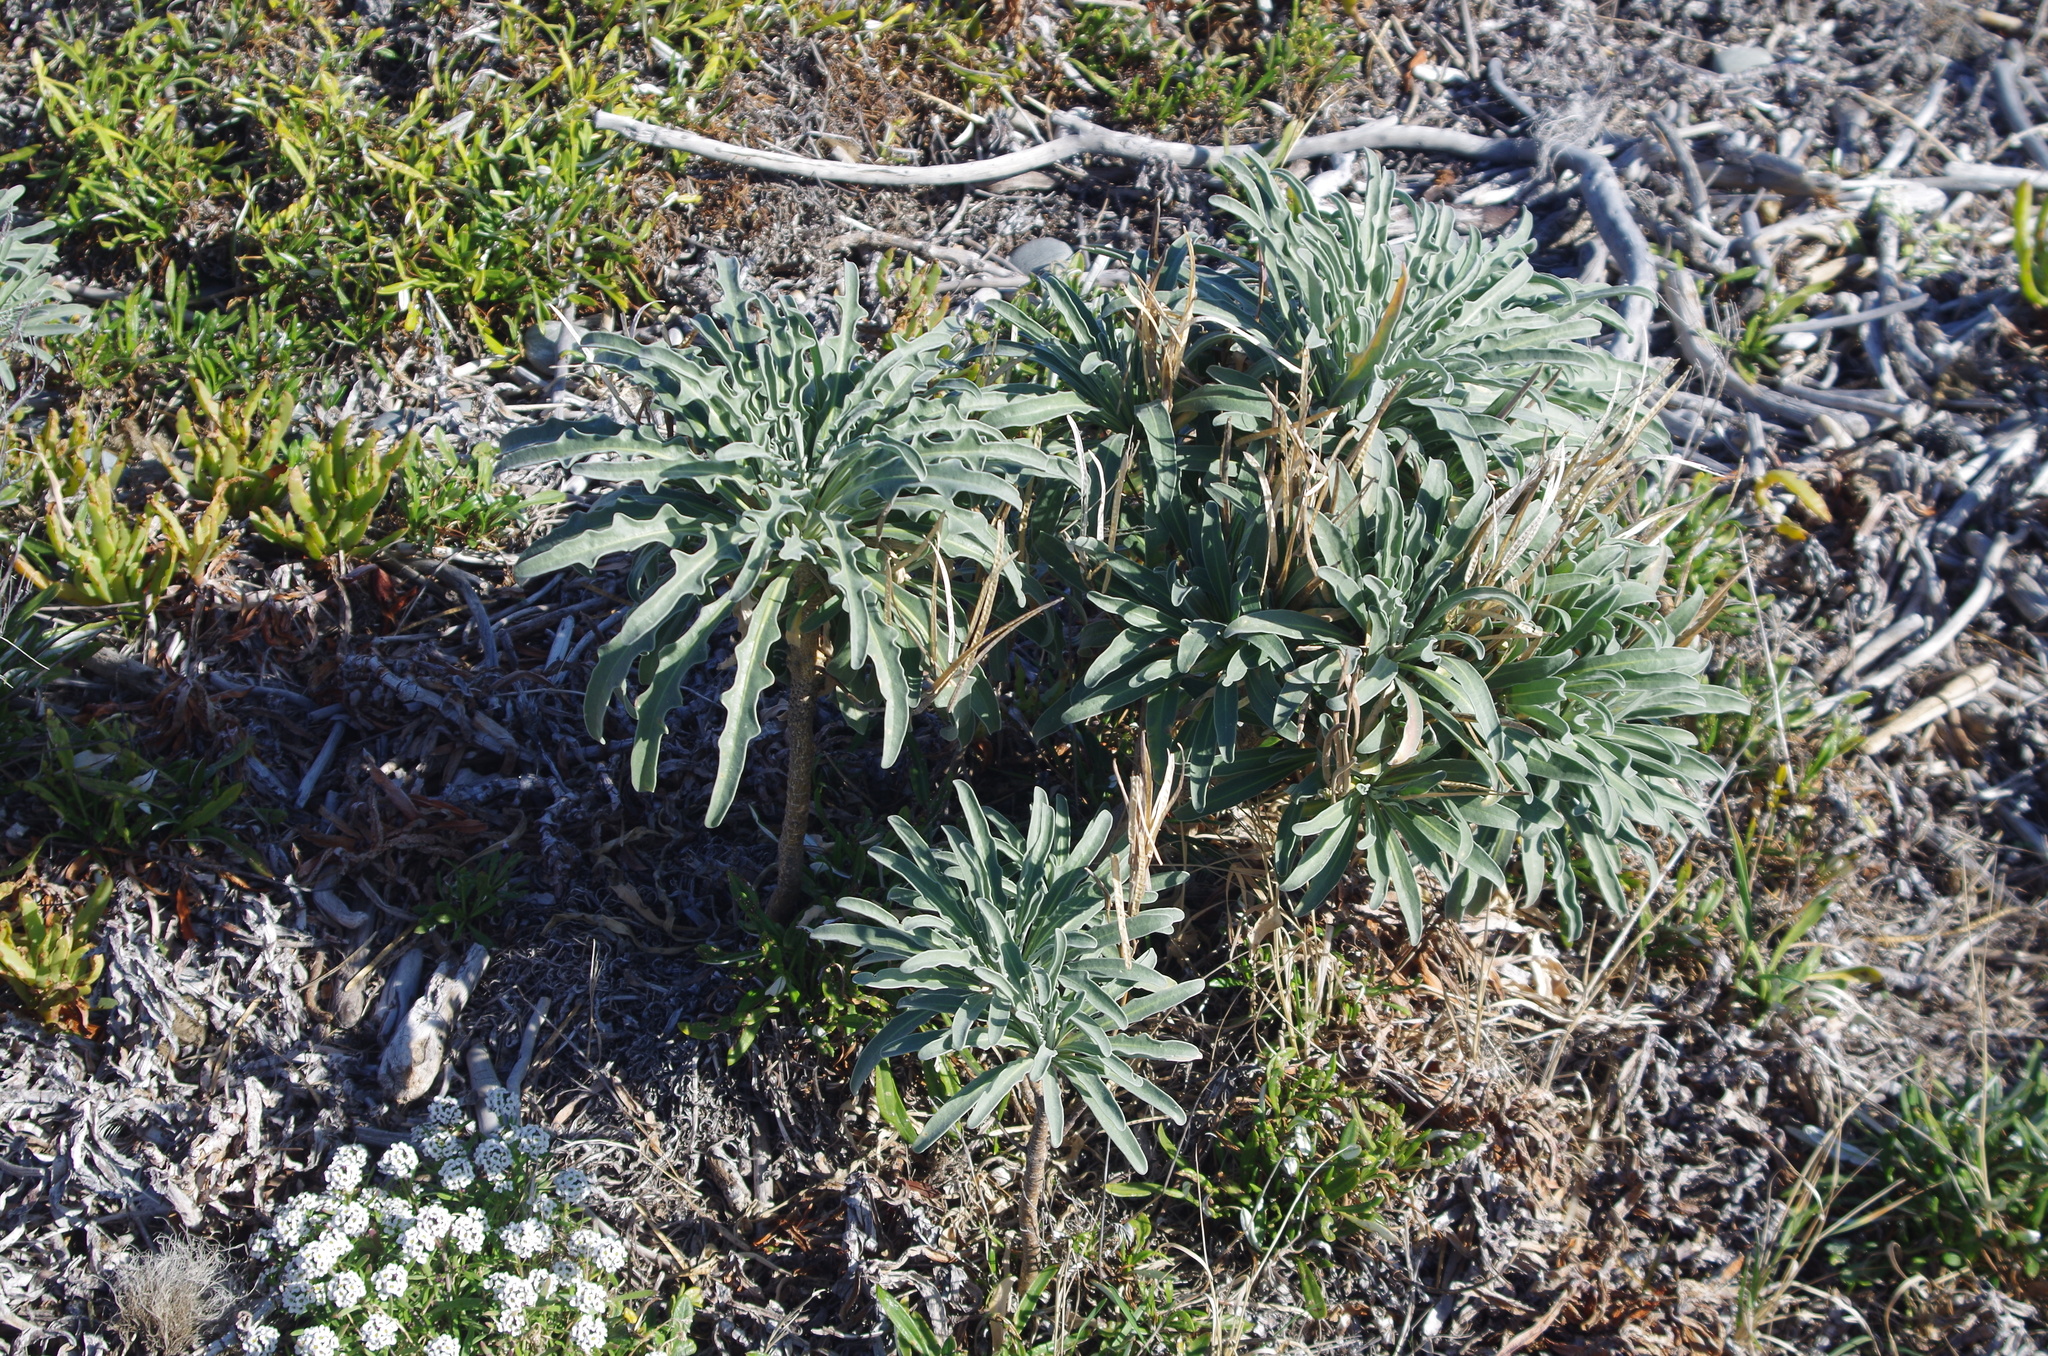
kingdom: Plantae
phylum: Tracheophyta
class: Magnoliopsida
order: Brassicales
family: Brassicaceae
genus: Erysimum
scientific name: Erysimum cheiri
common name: Wallflower
